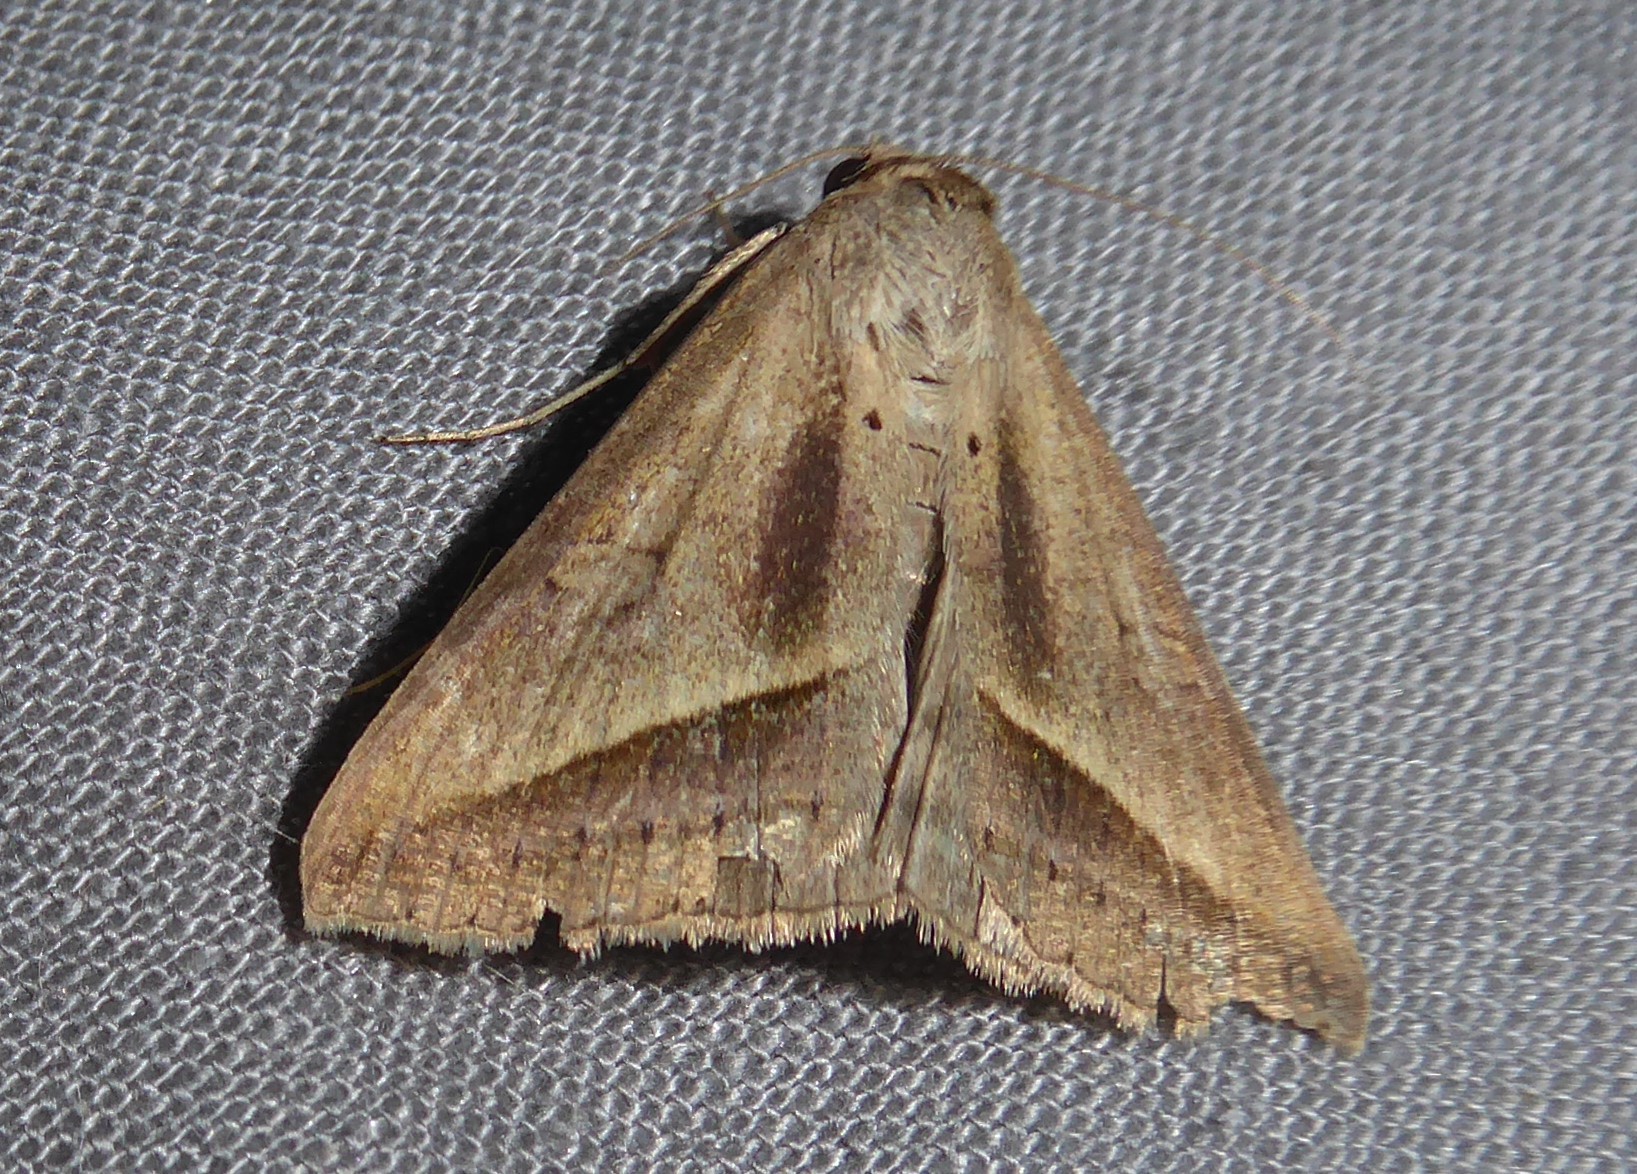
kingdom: Animalia
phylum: Arthropoda
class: Insecta
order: Lepidoptera
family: Erebidae
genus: Mocis
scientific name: Mocis frugalis
